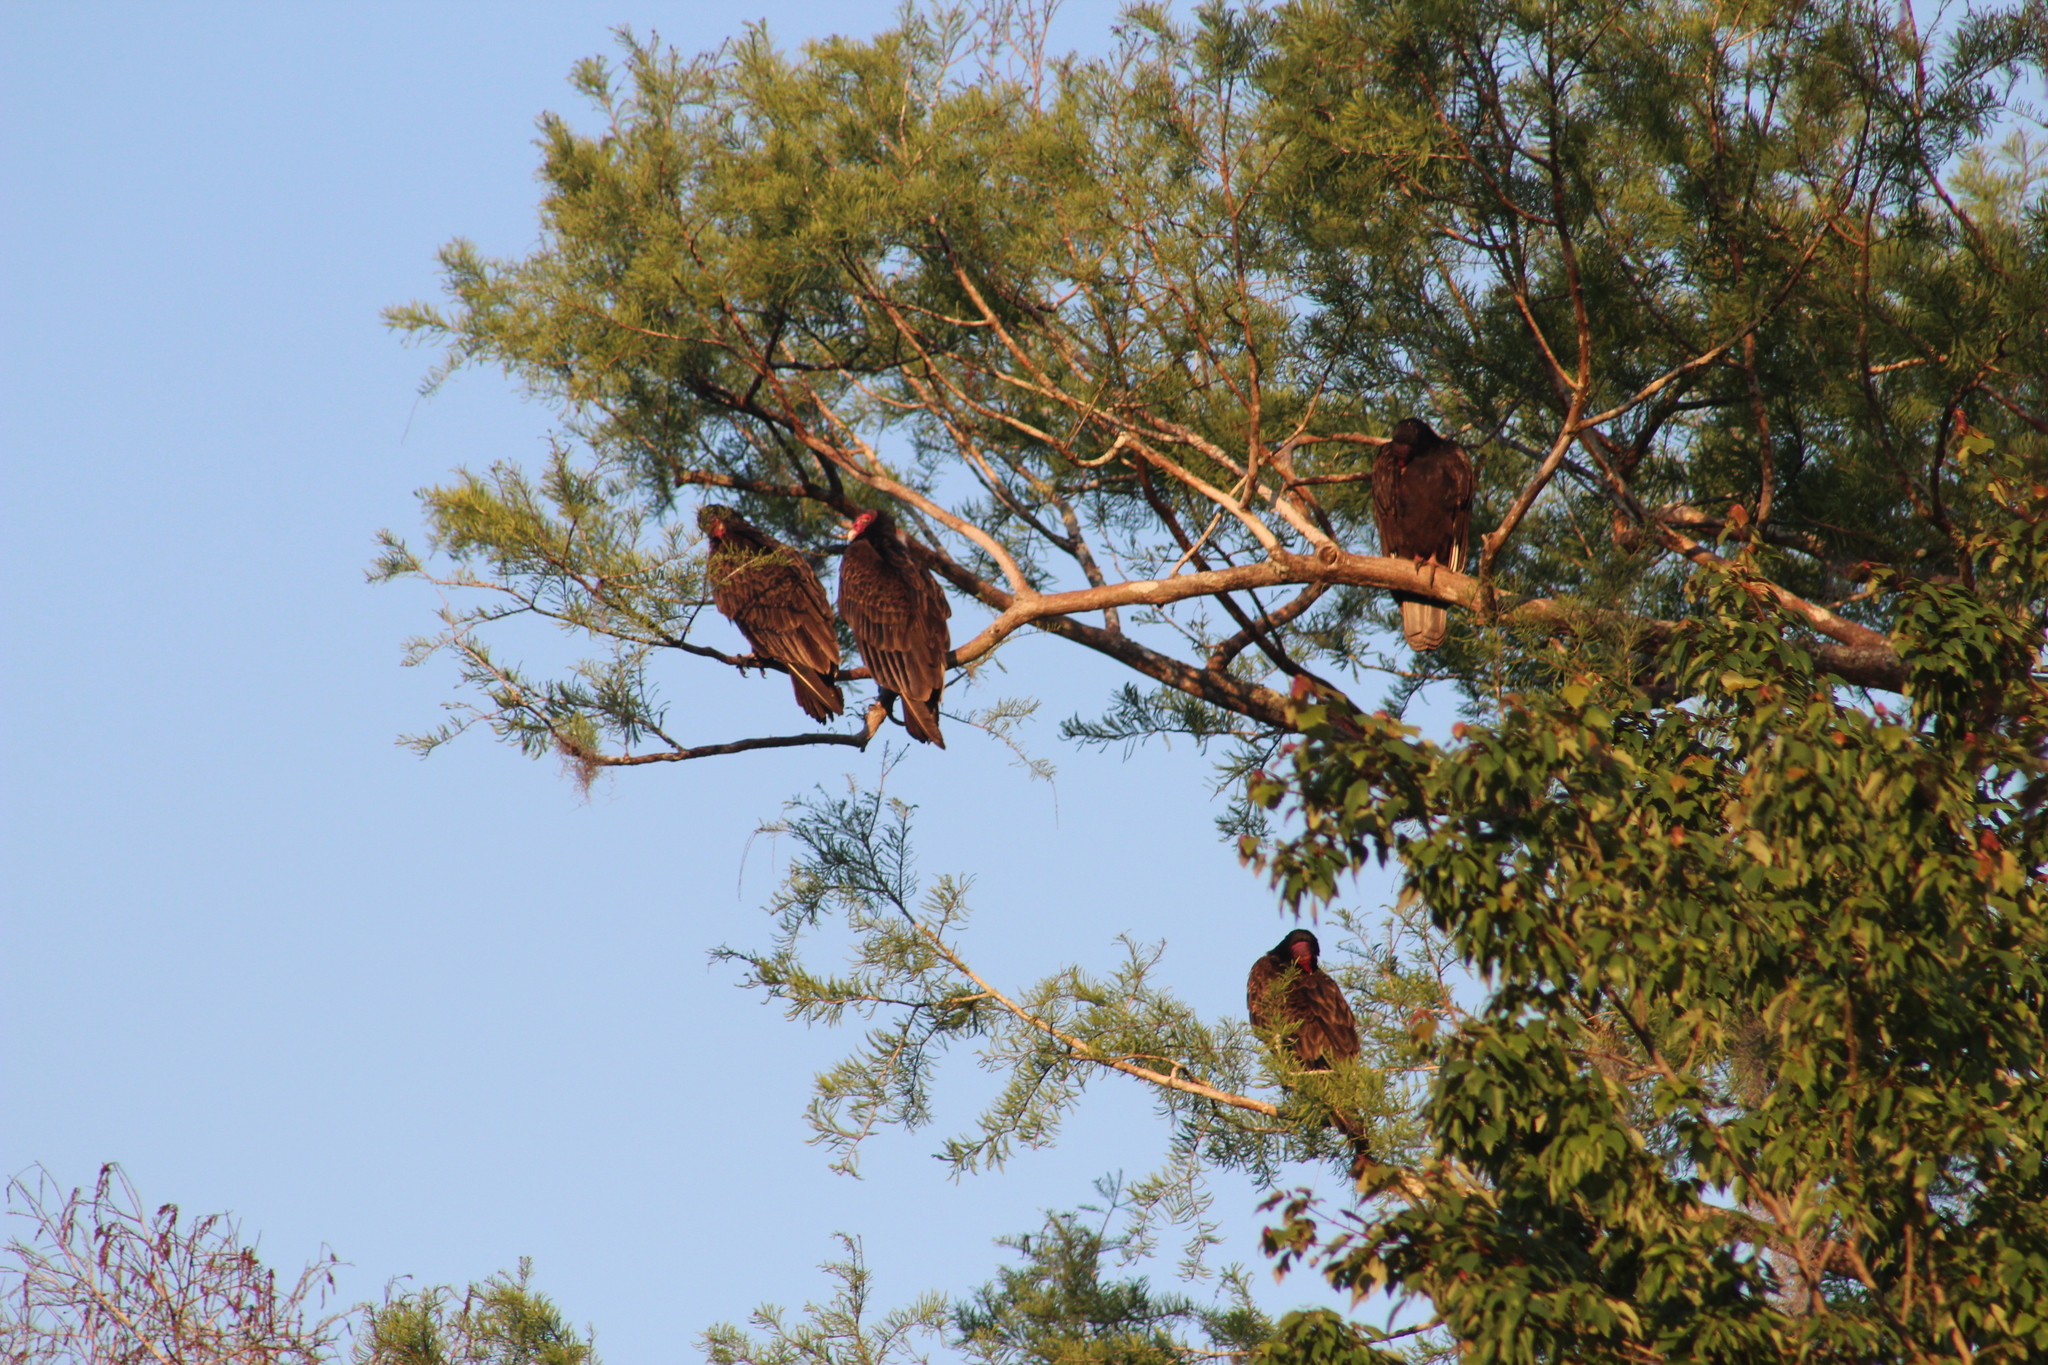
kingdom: Animalia
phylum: Chordata
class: Aves
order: Accipitriformes
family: Cathartidae
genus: Cathartes
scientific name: Cathartes aura
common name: Turkey vulture
